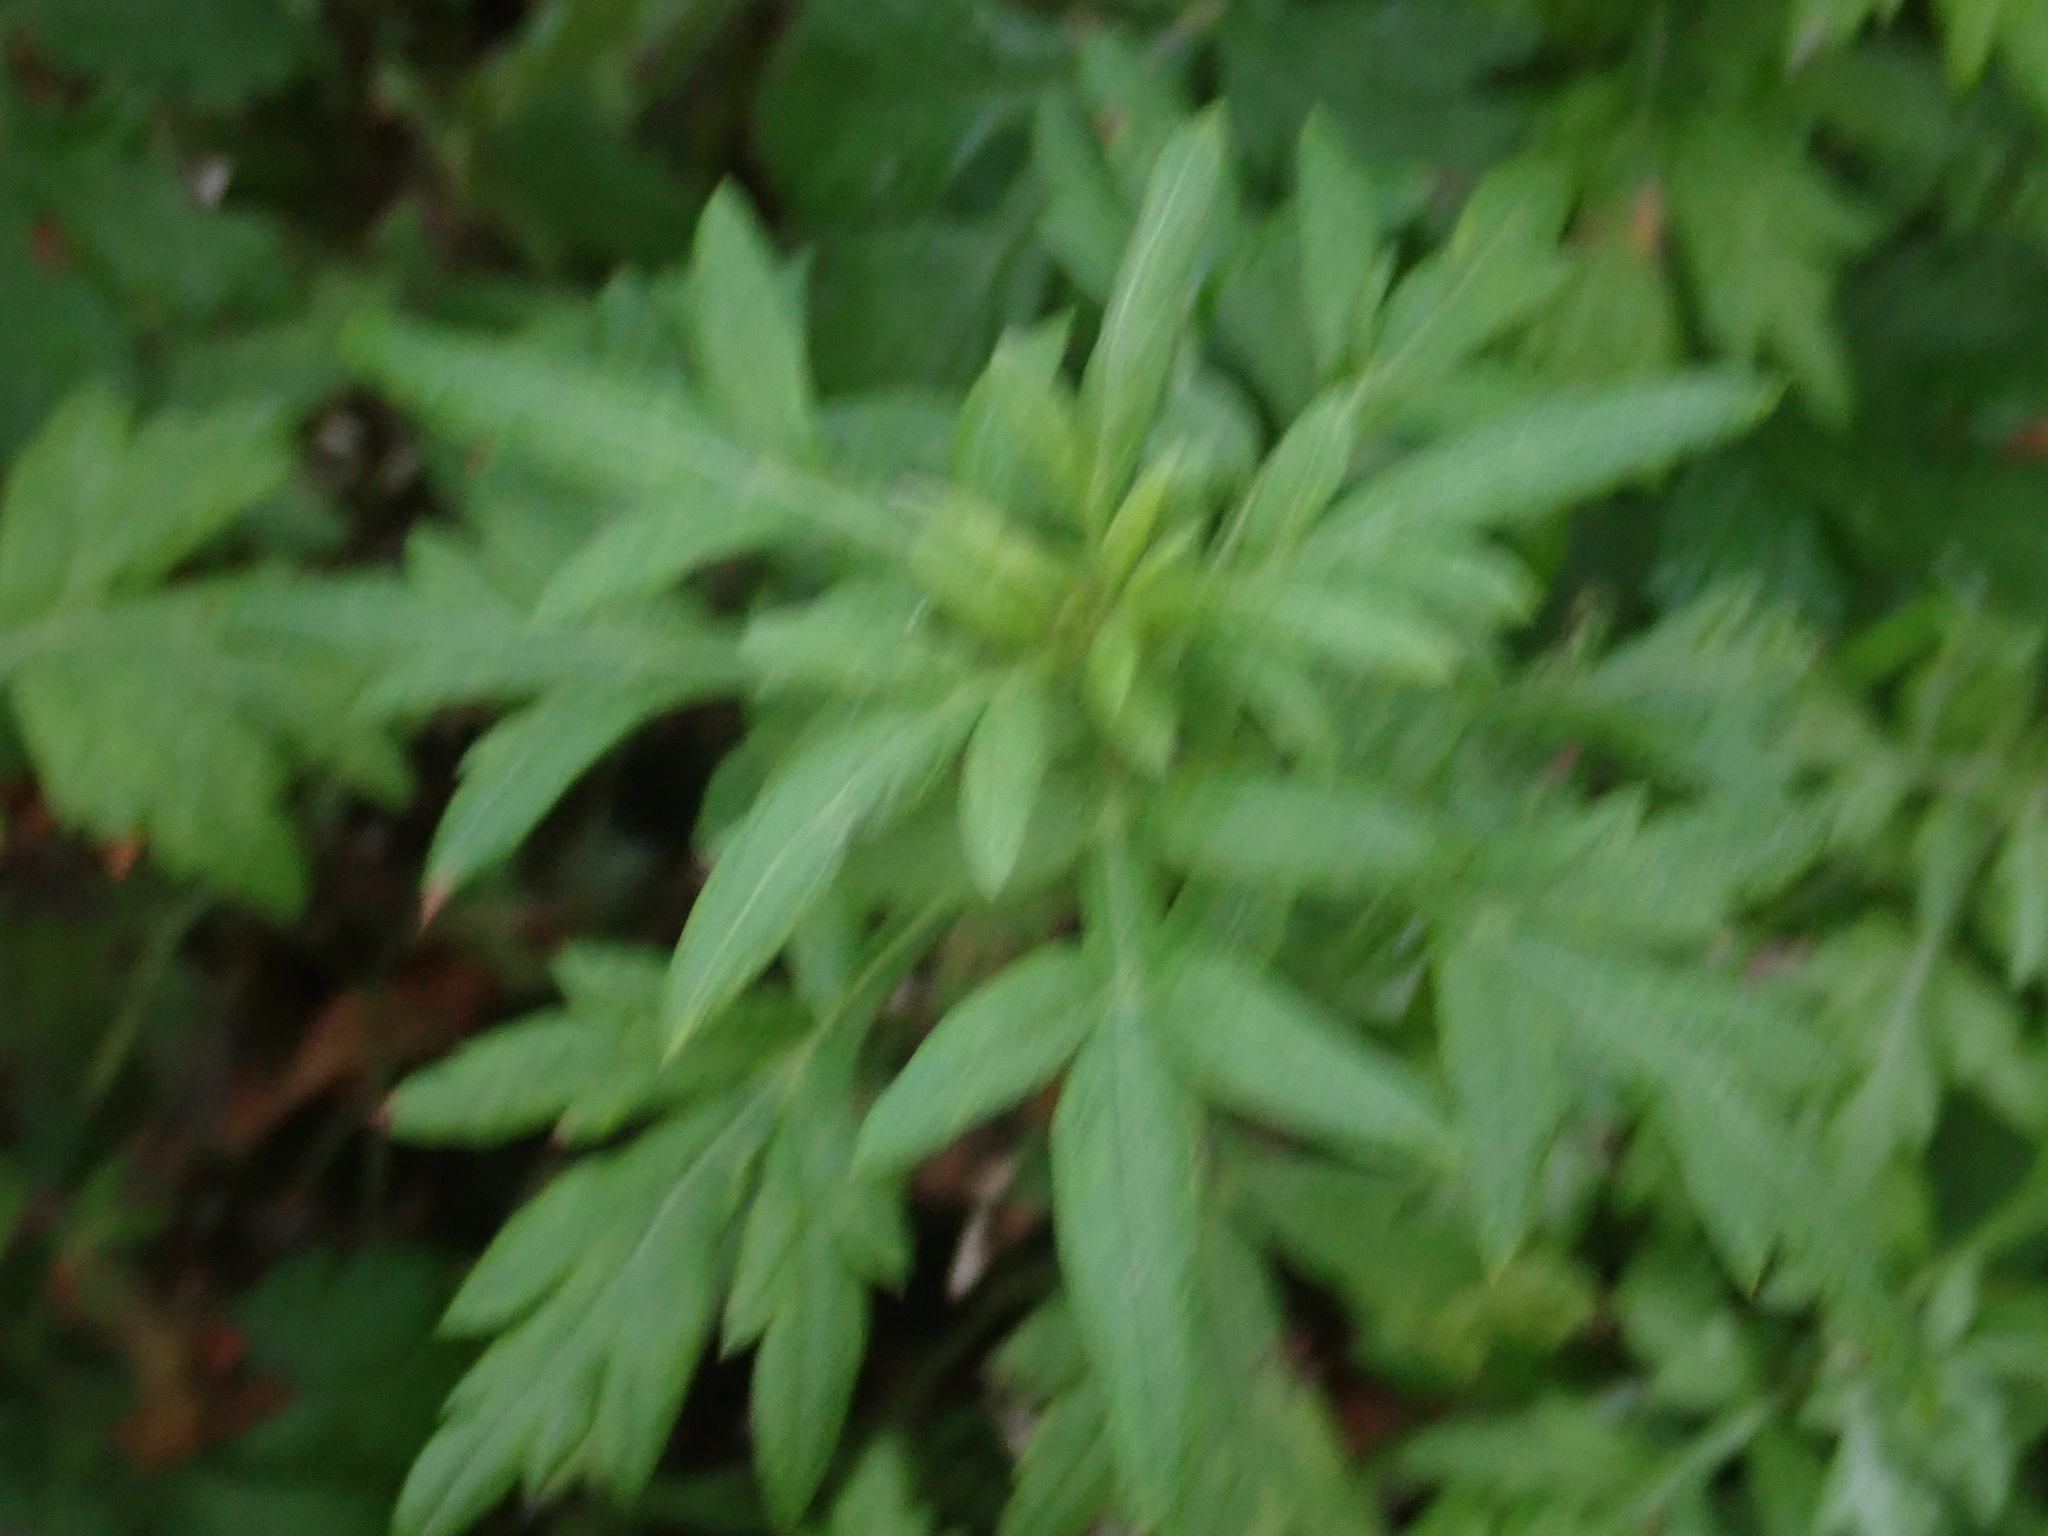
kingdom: Plantae
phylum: Tracheophyta
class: Magnoliopsida
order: Asterales
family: Asteraceae
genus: Artemisia
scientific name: Artemisia vulgaris
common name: Mugwort
